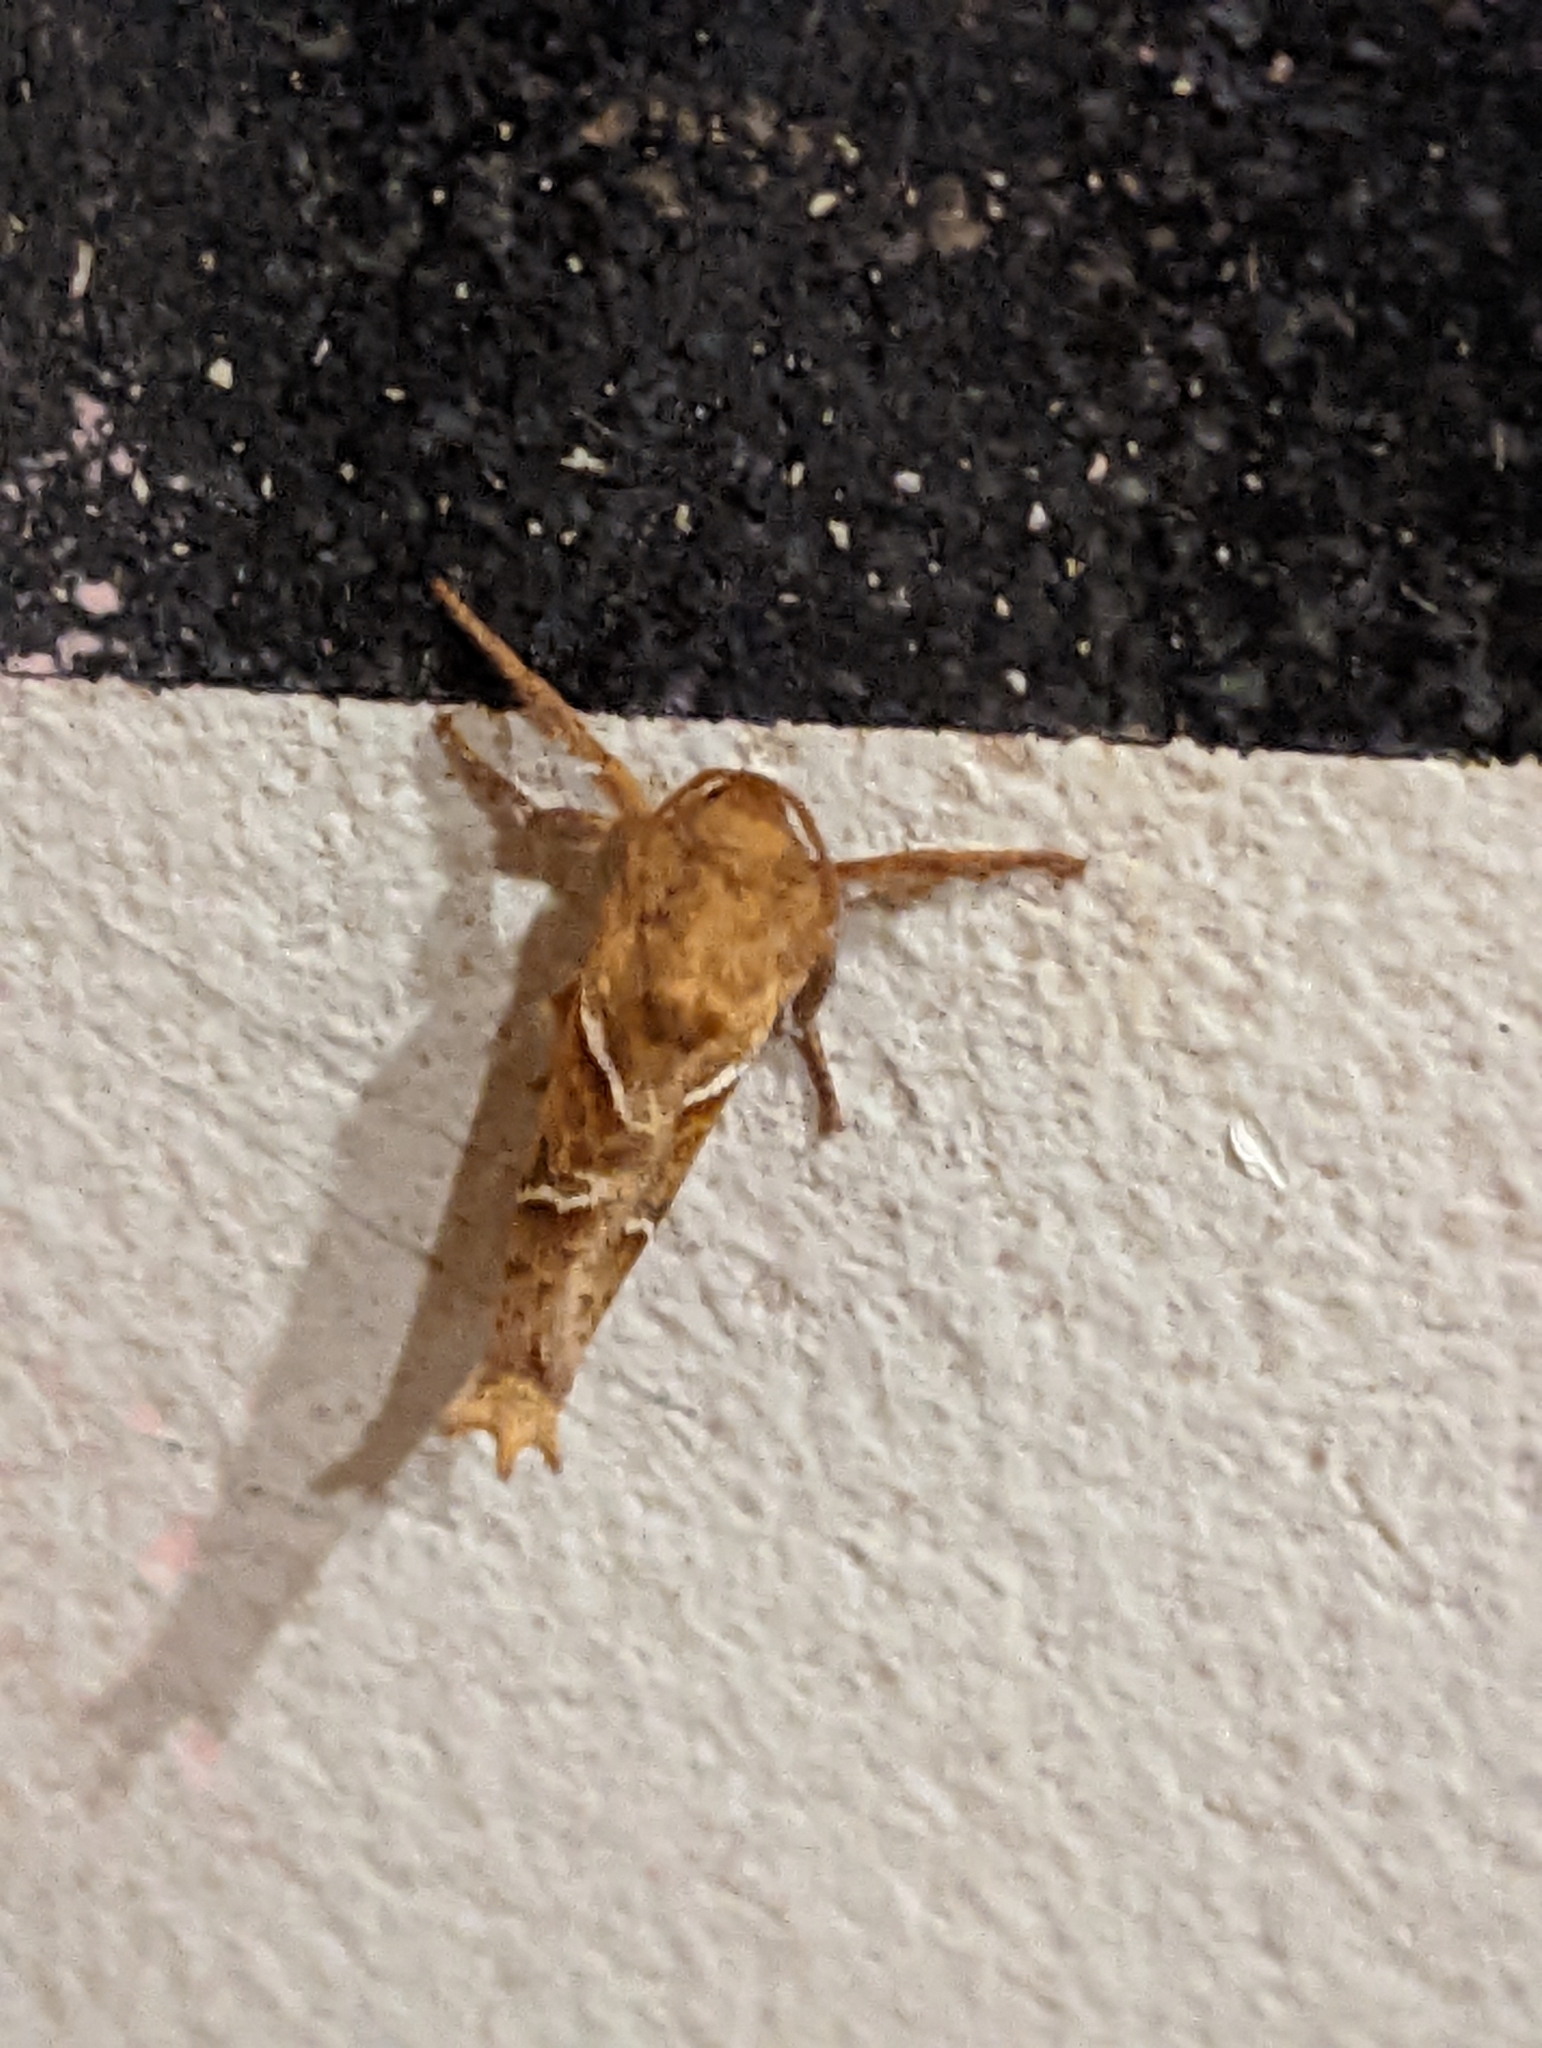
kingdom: Animalia
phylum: Arthropoda
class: Insecta
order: Lepidoptera
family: Hepialidae
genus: Triodia
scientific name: Triodia sylvina
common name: Orange swift
